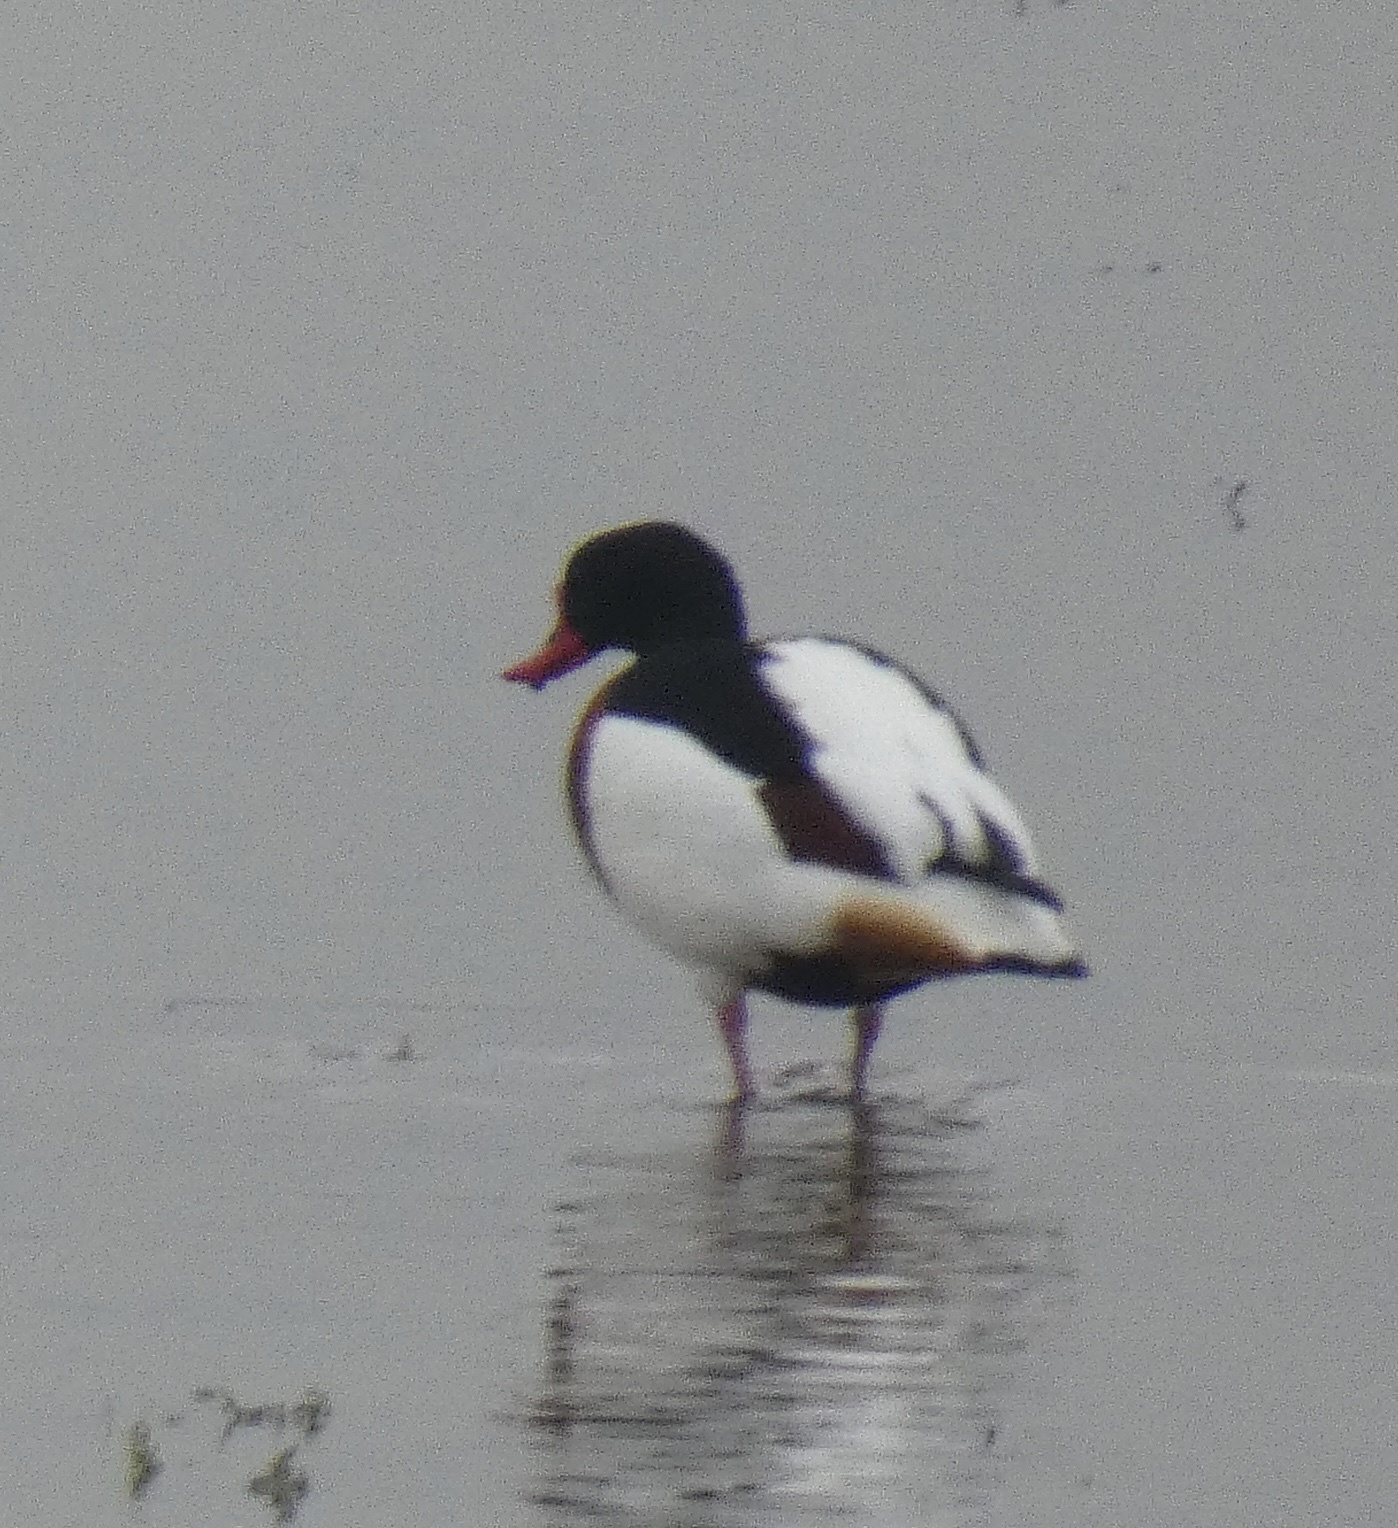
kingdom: Animalia
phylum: Chordata
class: Aves
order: Anseriformes
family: Anatidae
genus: Tadorna
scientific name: Tadorna tadorna
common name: Common shelduck
